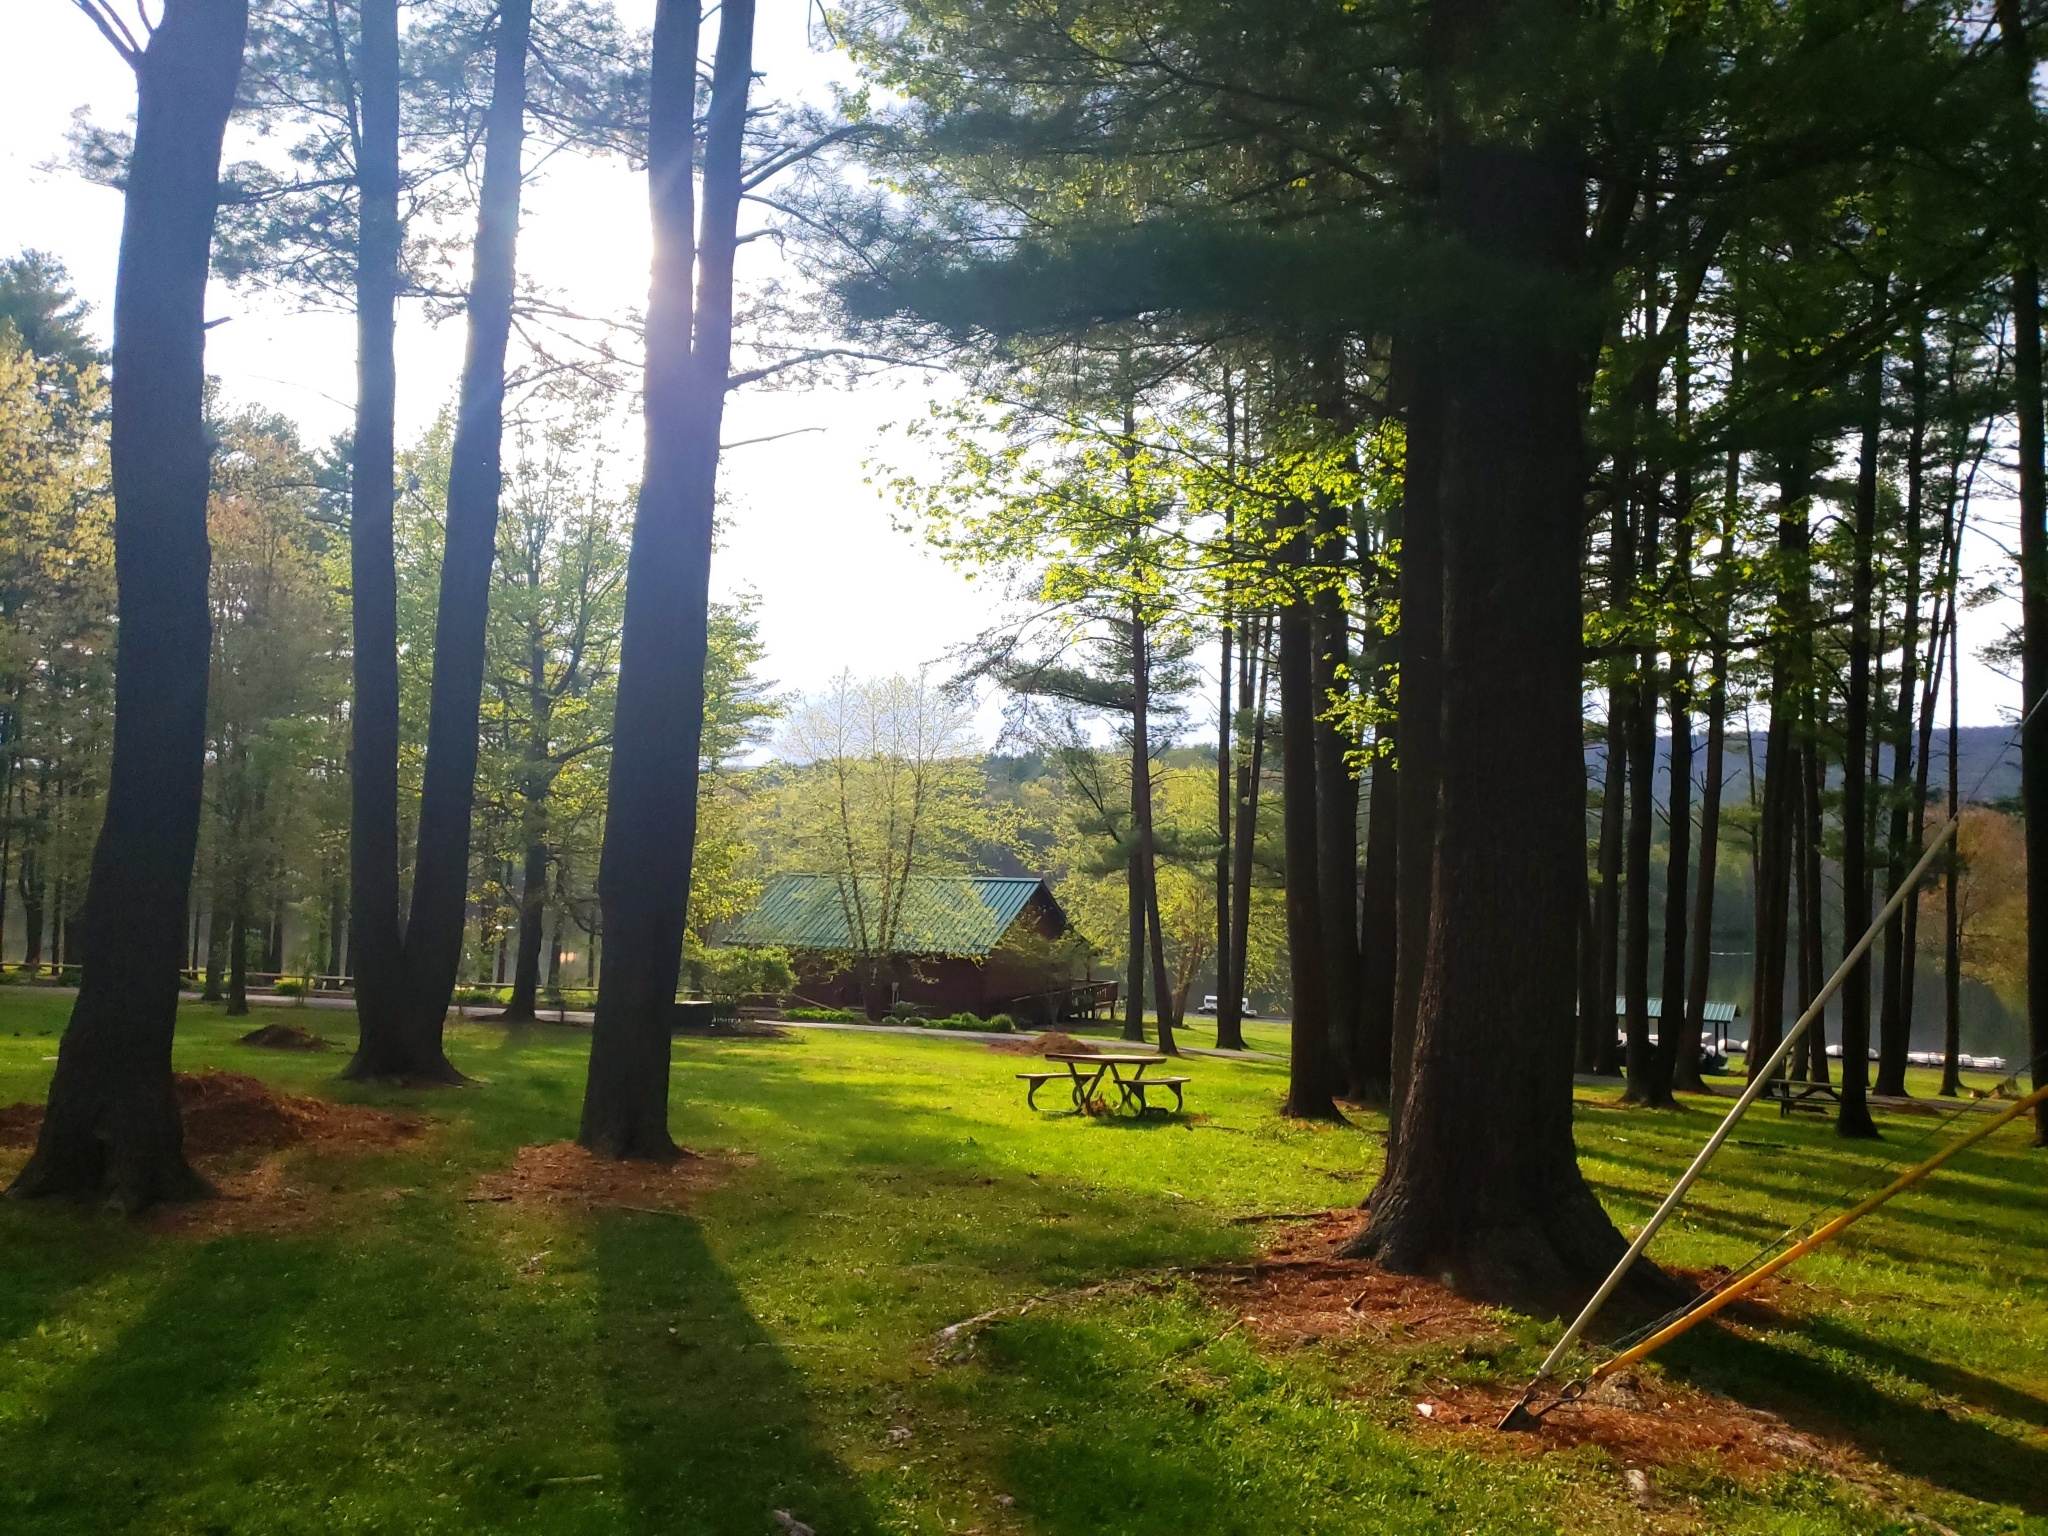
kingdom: Plantae
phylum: Tracheophyta
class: Pinopsida
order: Pinales
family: Pinaceae
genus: Pinus
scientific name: Pinus strobus
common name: Weymouth pine
